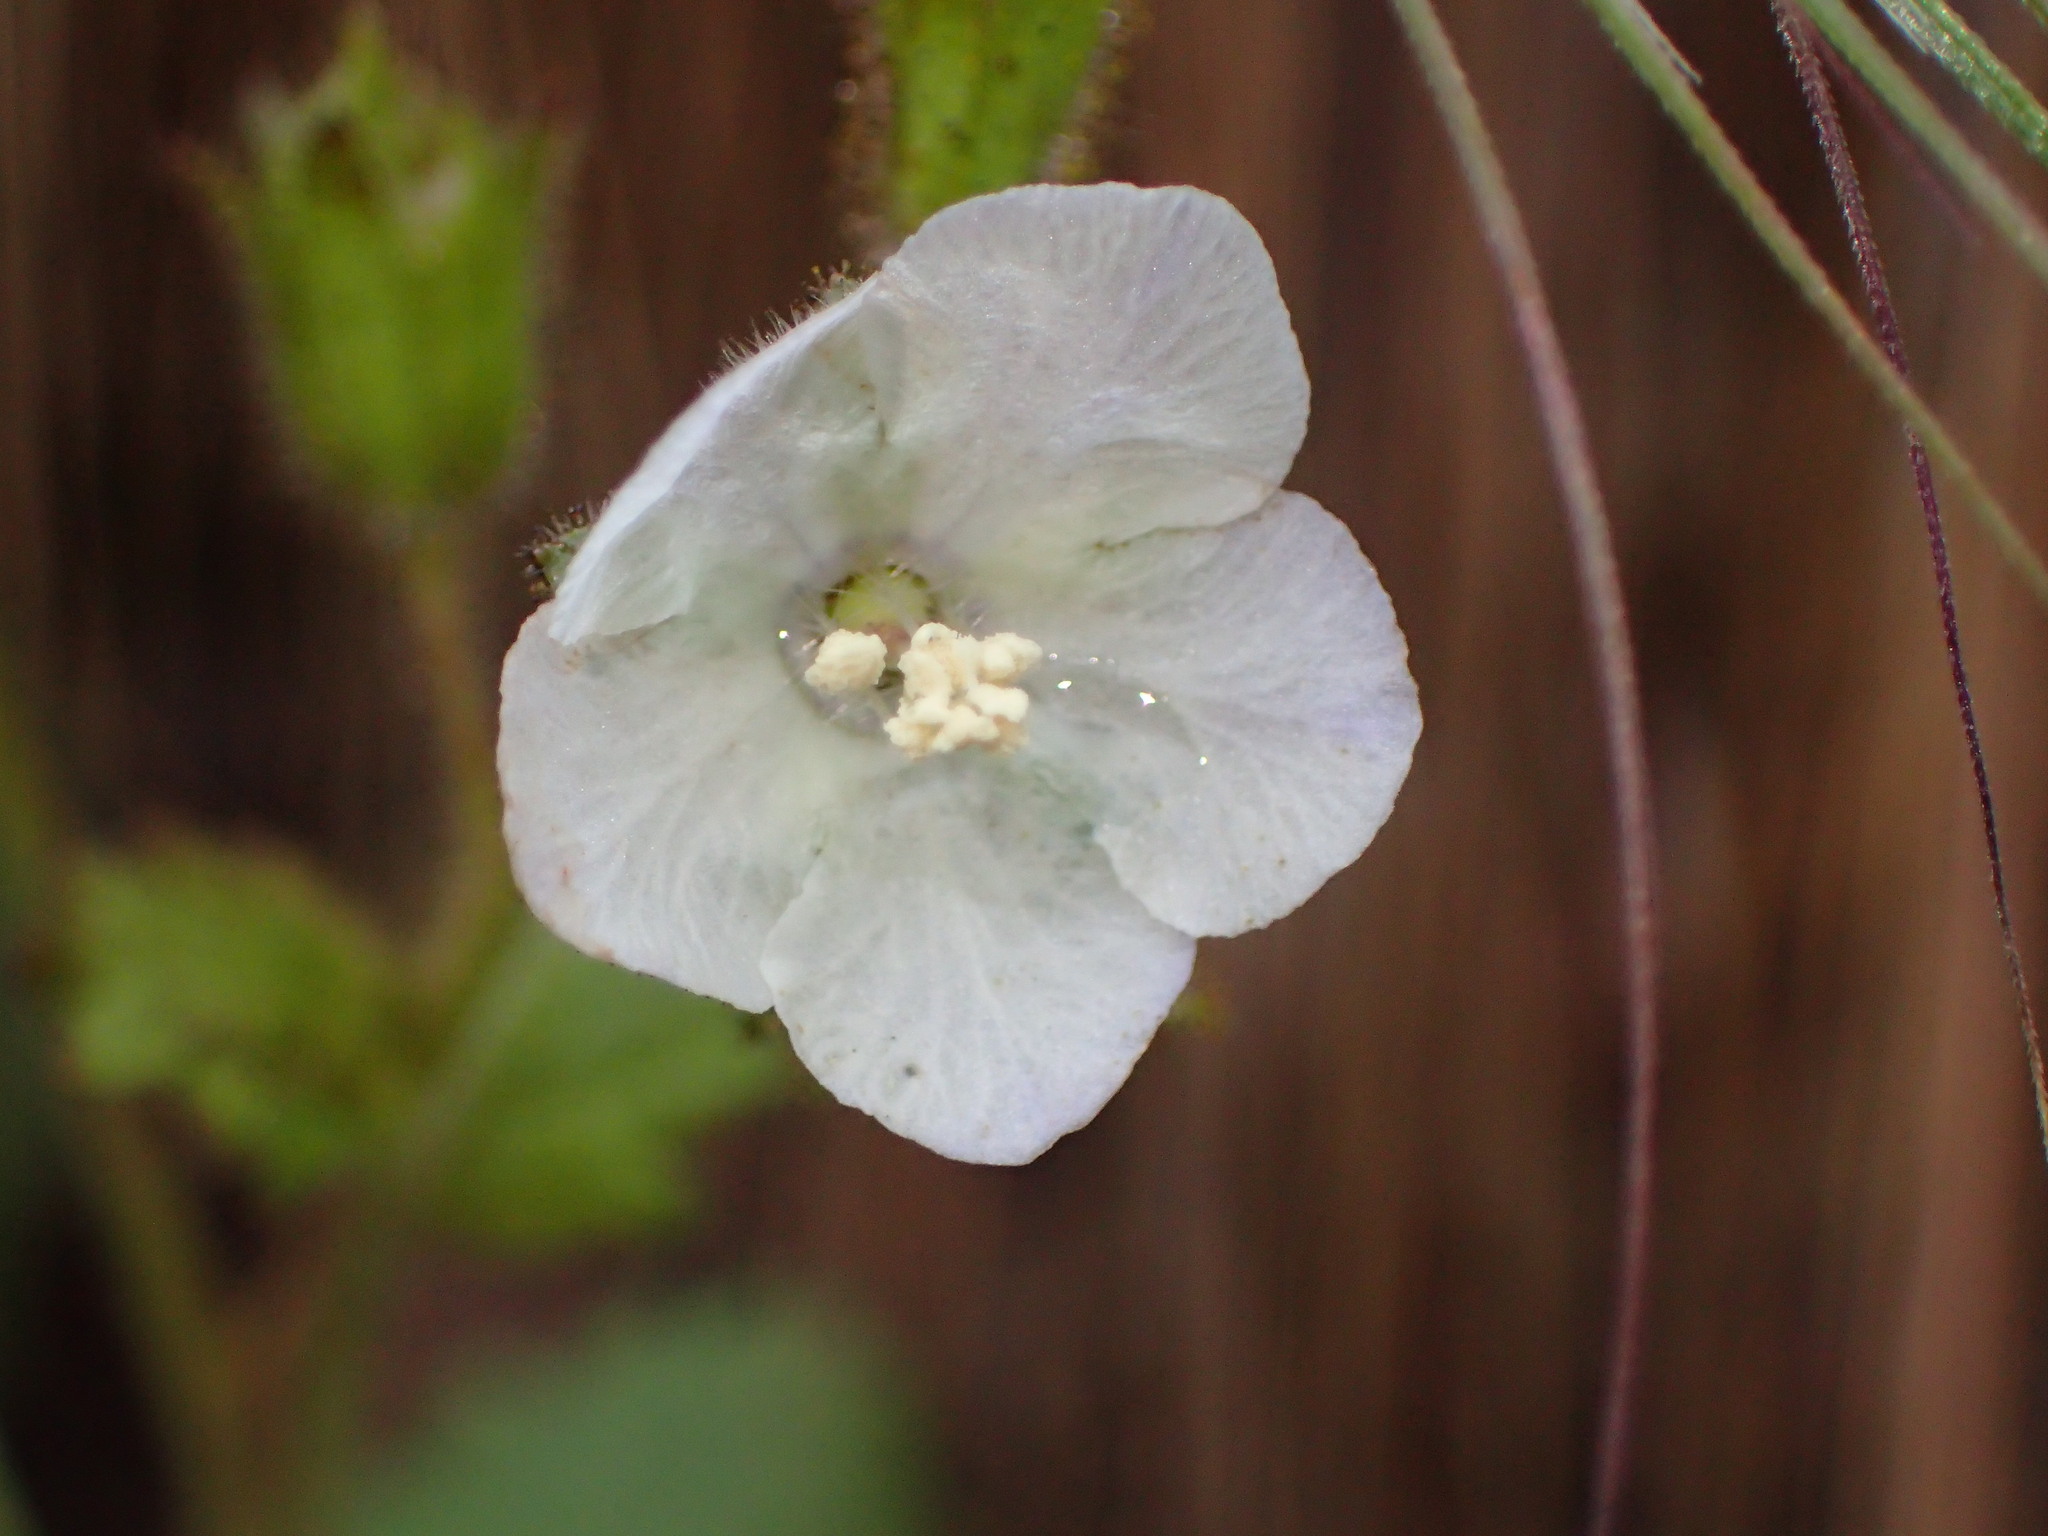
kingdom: Plantae
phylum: Tracheophyta
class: Magnoliopsida
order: Boraginales
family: Hydrophyllaceae
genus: Phacelia
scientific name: Phacelia viscida
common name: Sticky phacelia
